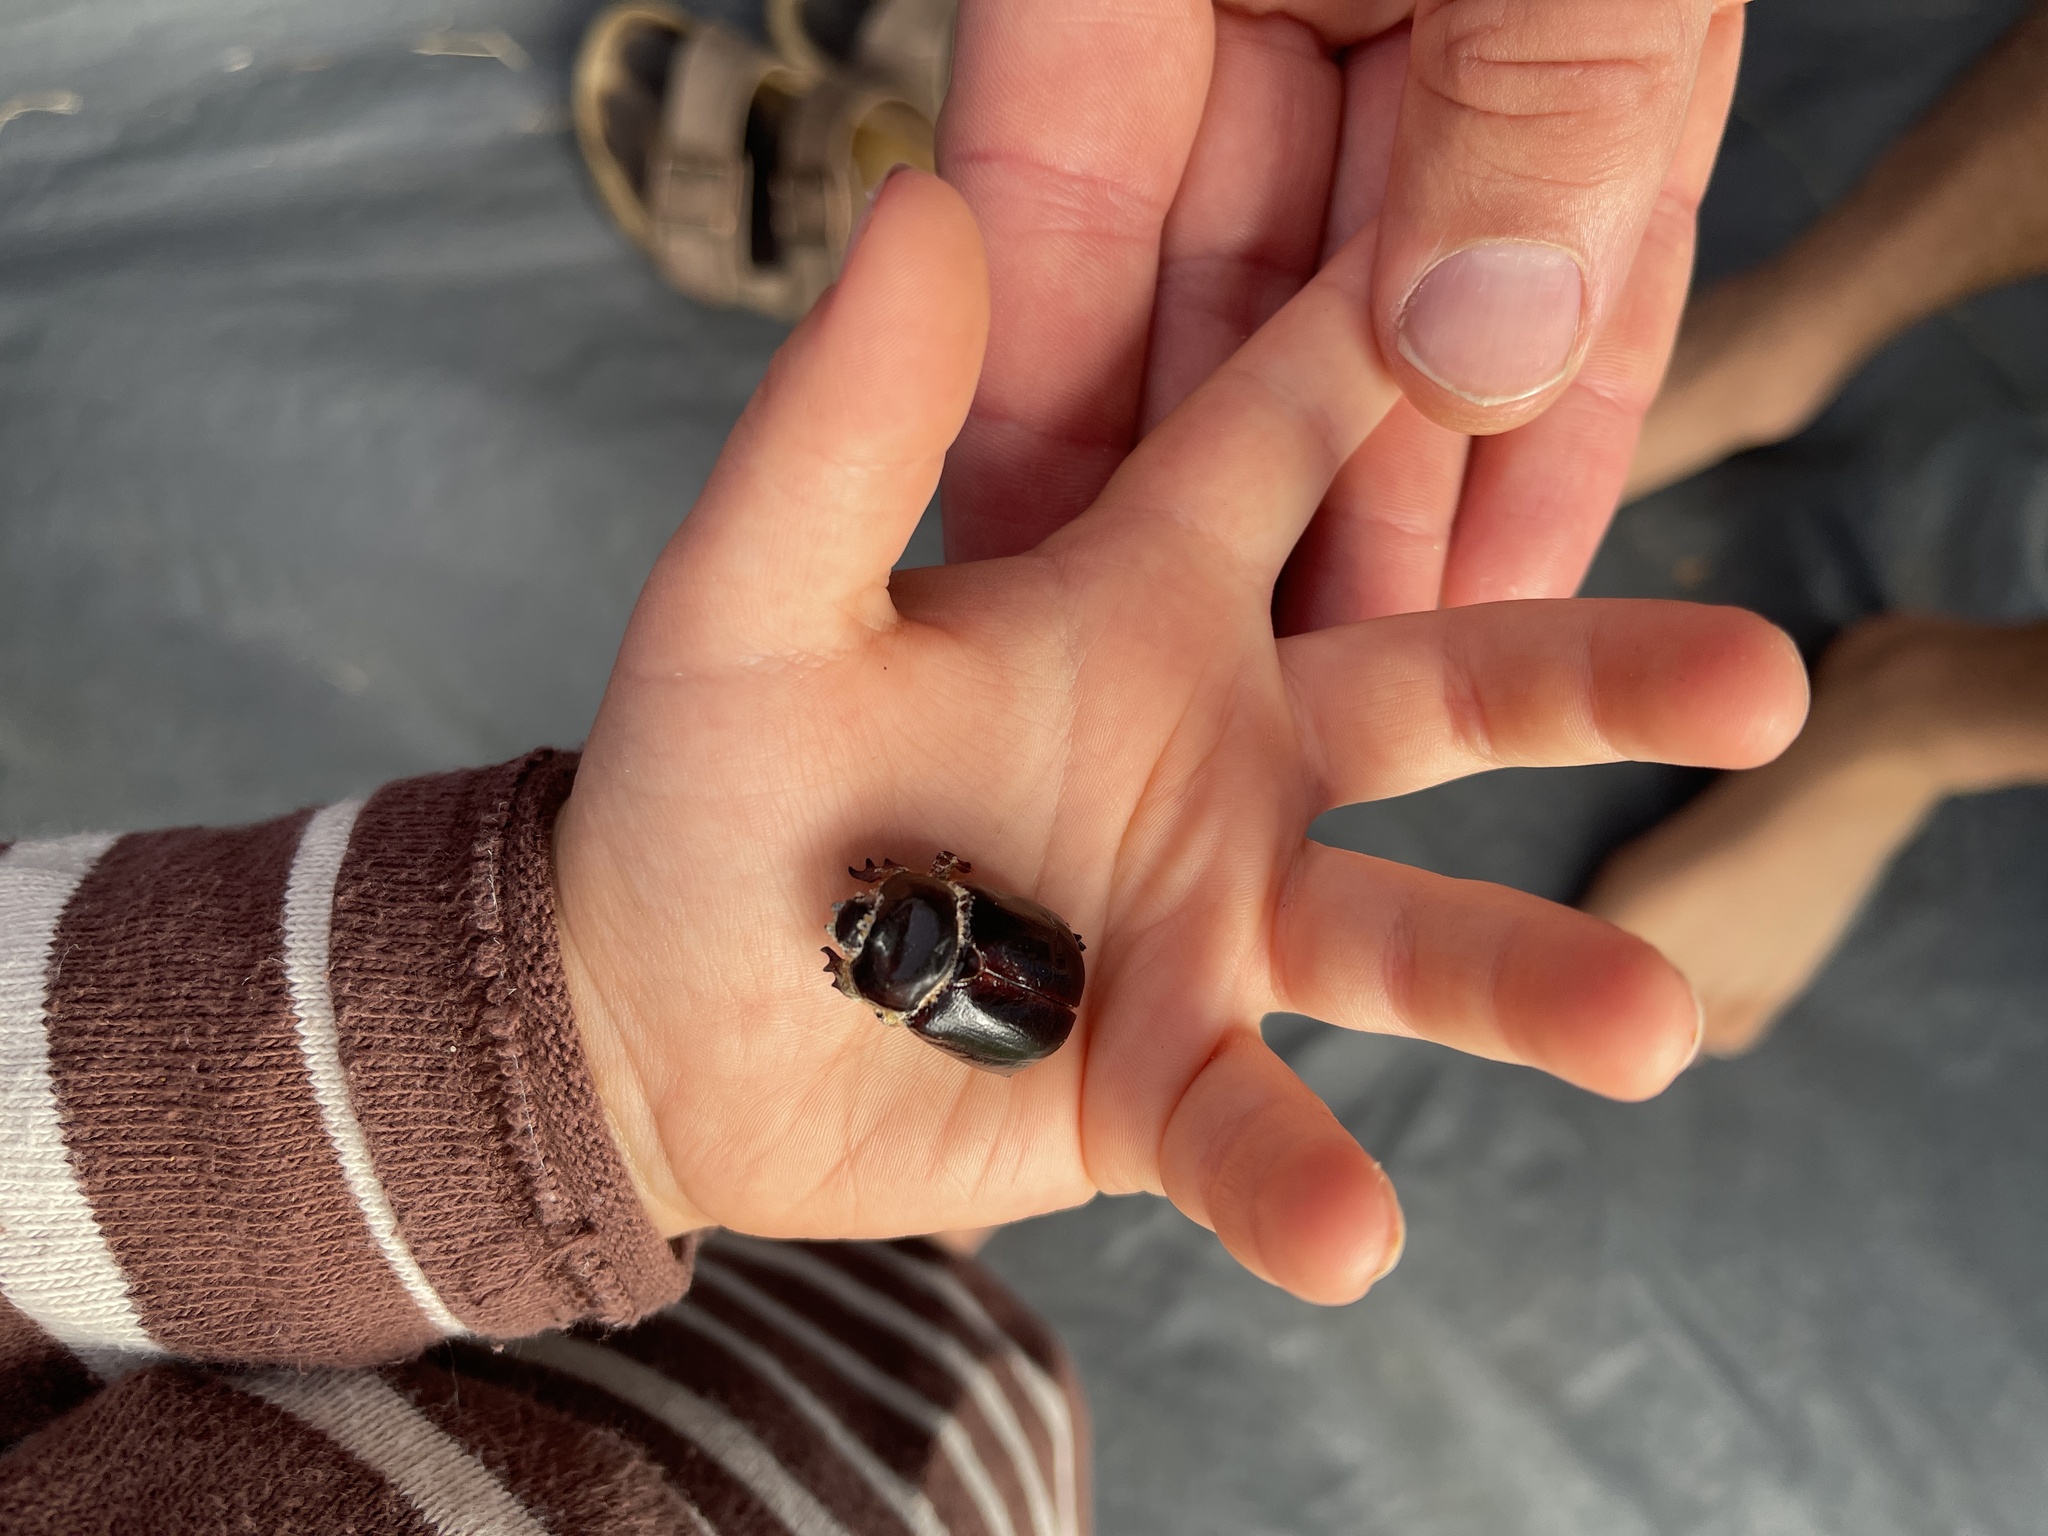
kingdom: Animalia
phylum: Arthropoda
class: Insecta
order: Coleoptera
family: Scarabaeidae
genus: Pericoptus
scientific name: Pericoptus truncatus
